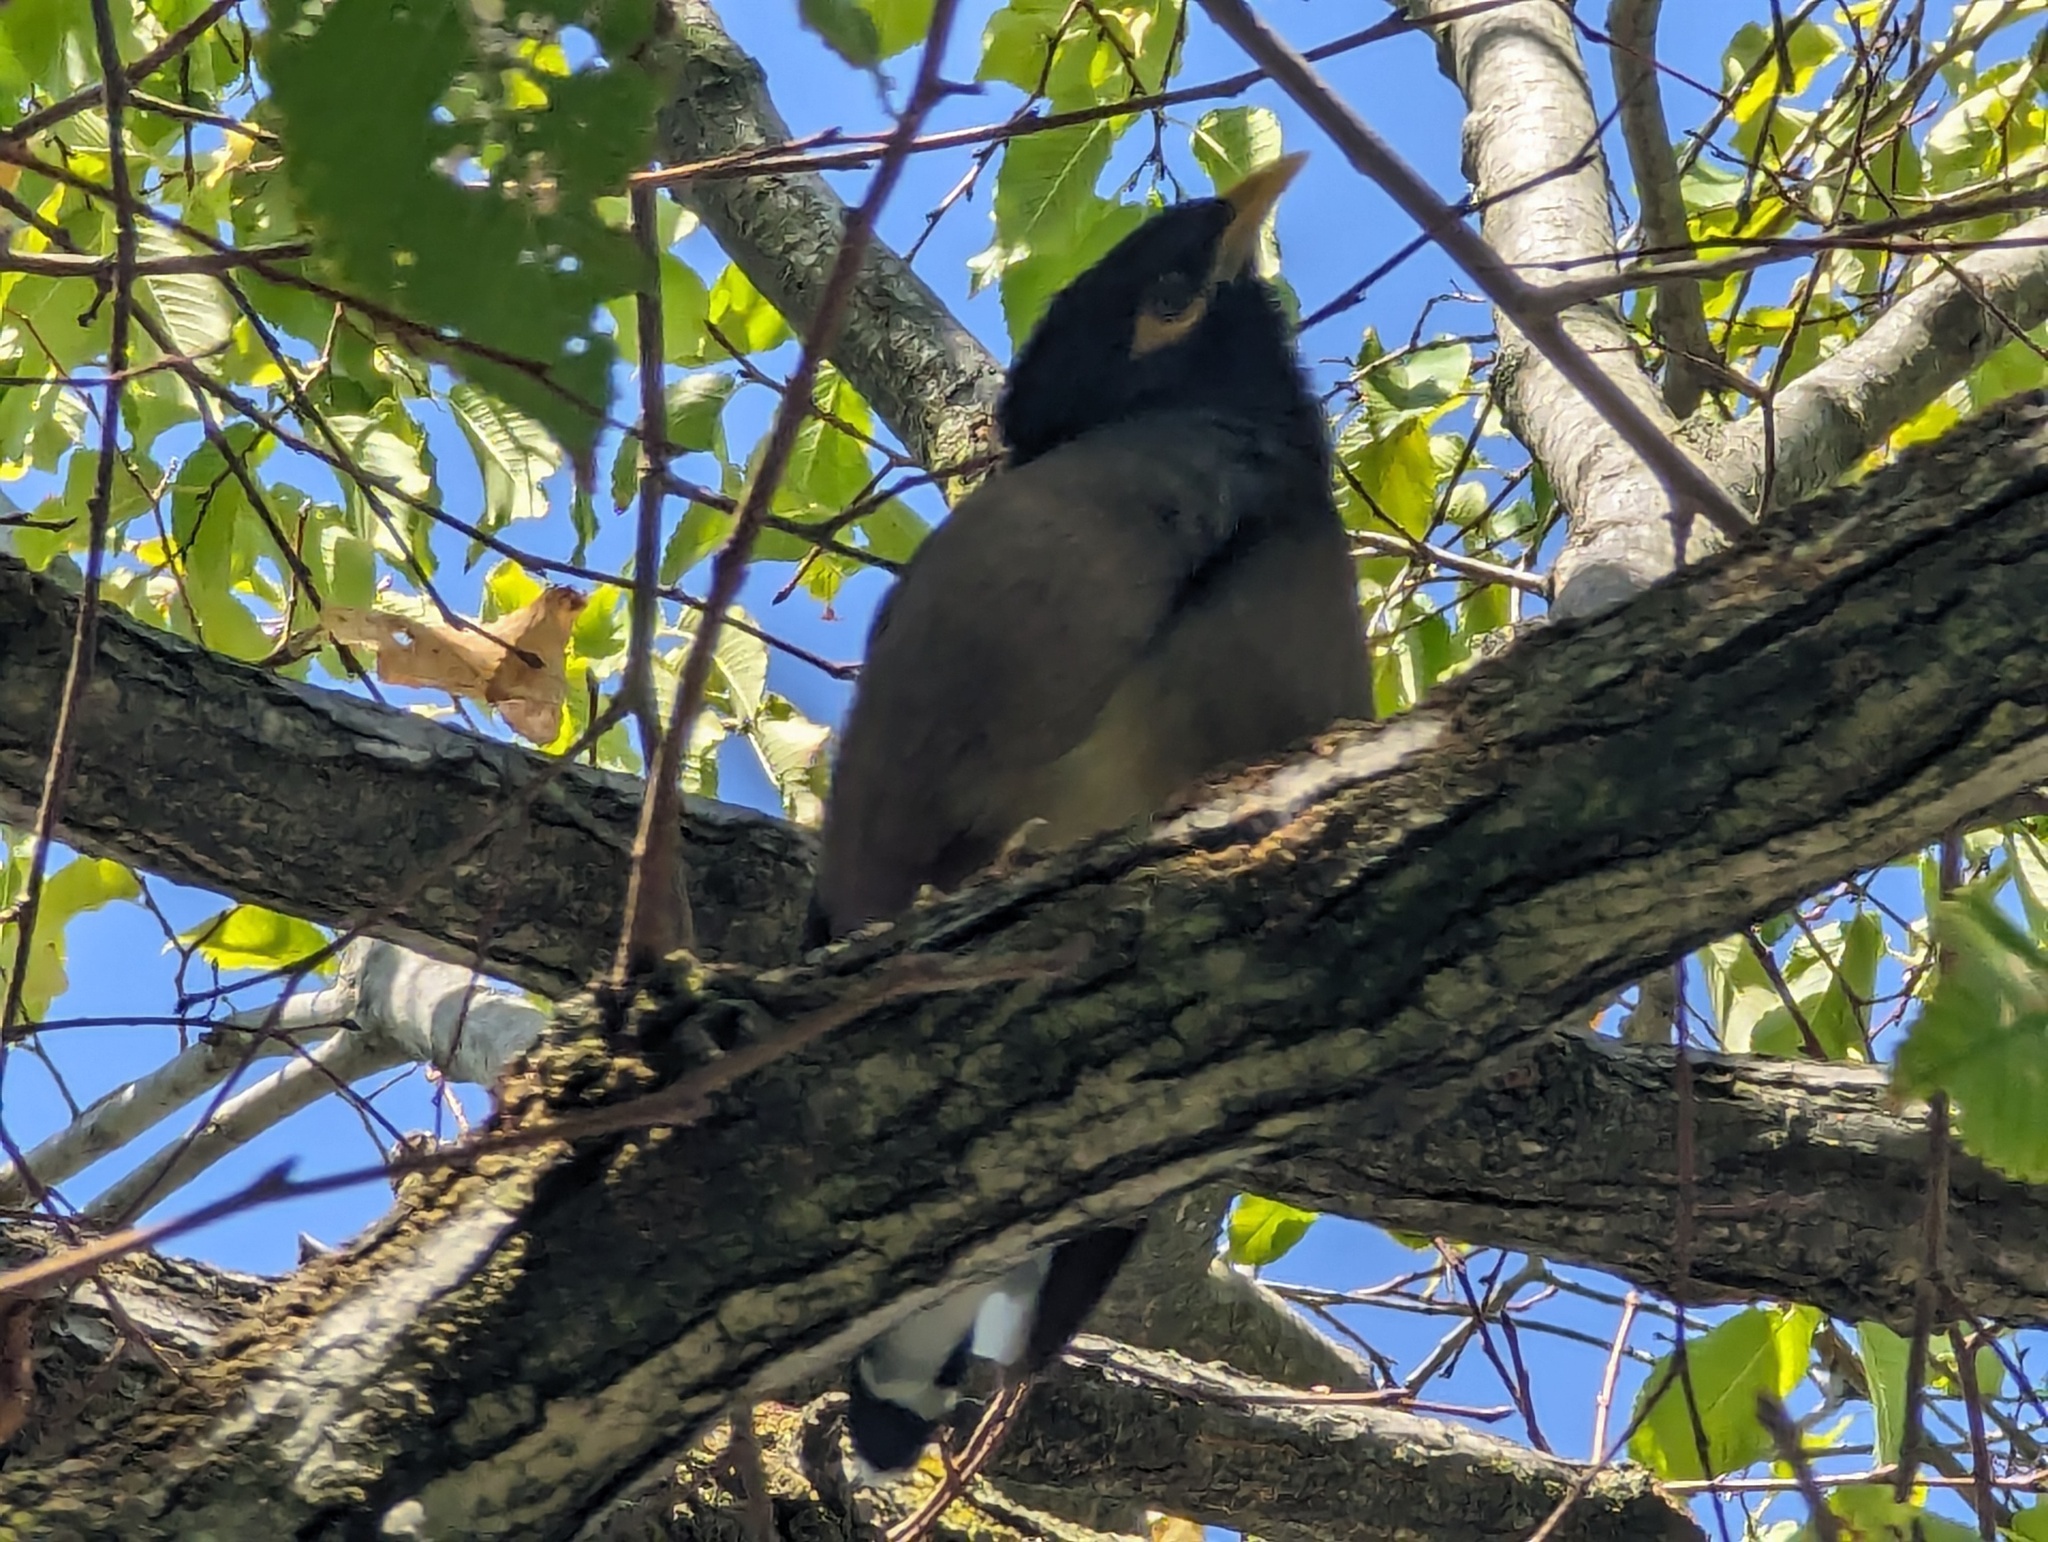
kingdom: Animalia
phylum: Chordata
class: Aves
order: Passeriformes
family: Sturnidae
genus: Acridotheres
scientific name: Acridotheres tristis
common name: Common myna
